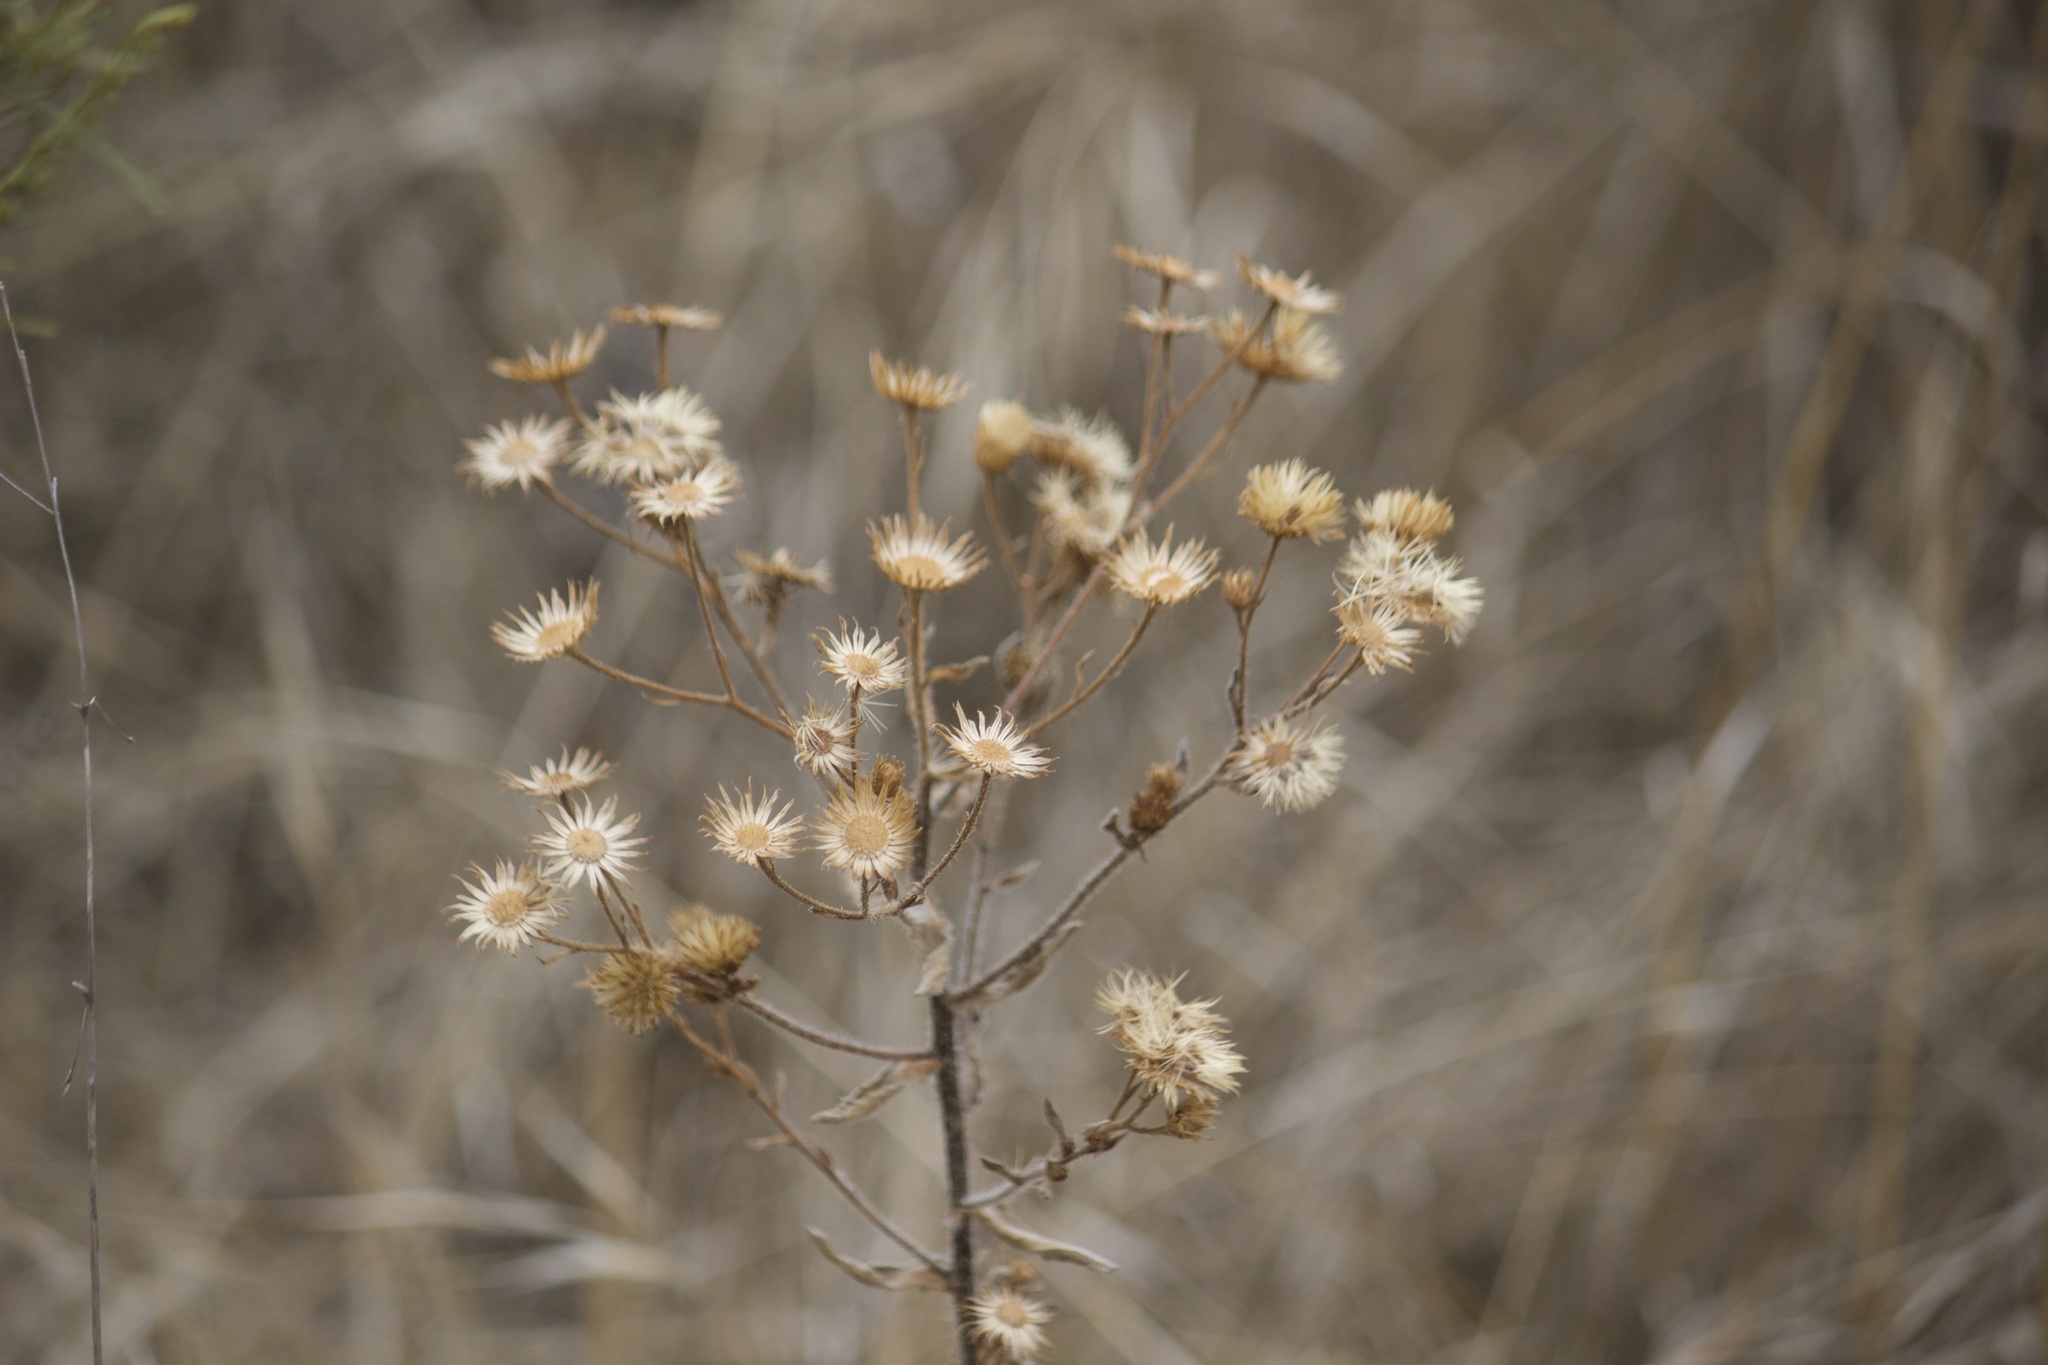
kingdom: Plantae
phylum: Tracheophyta
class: Magnoliopsida
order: Asterales
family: Asteraceae
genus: Heterotheca
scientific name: Heterotheca grandiflora
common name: Telegraphweed
